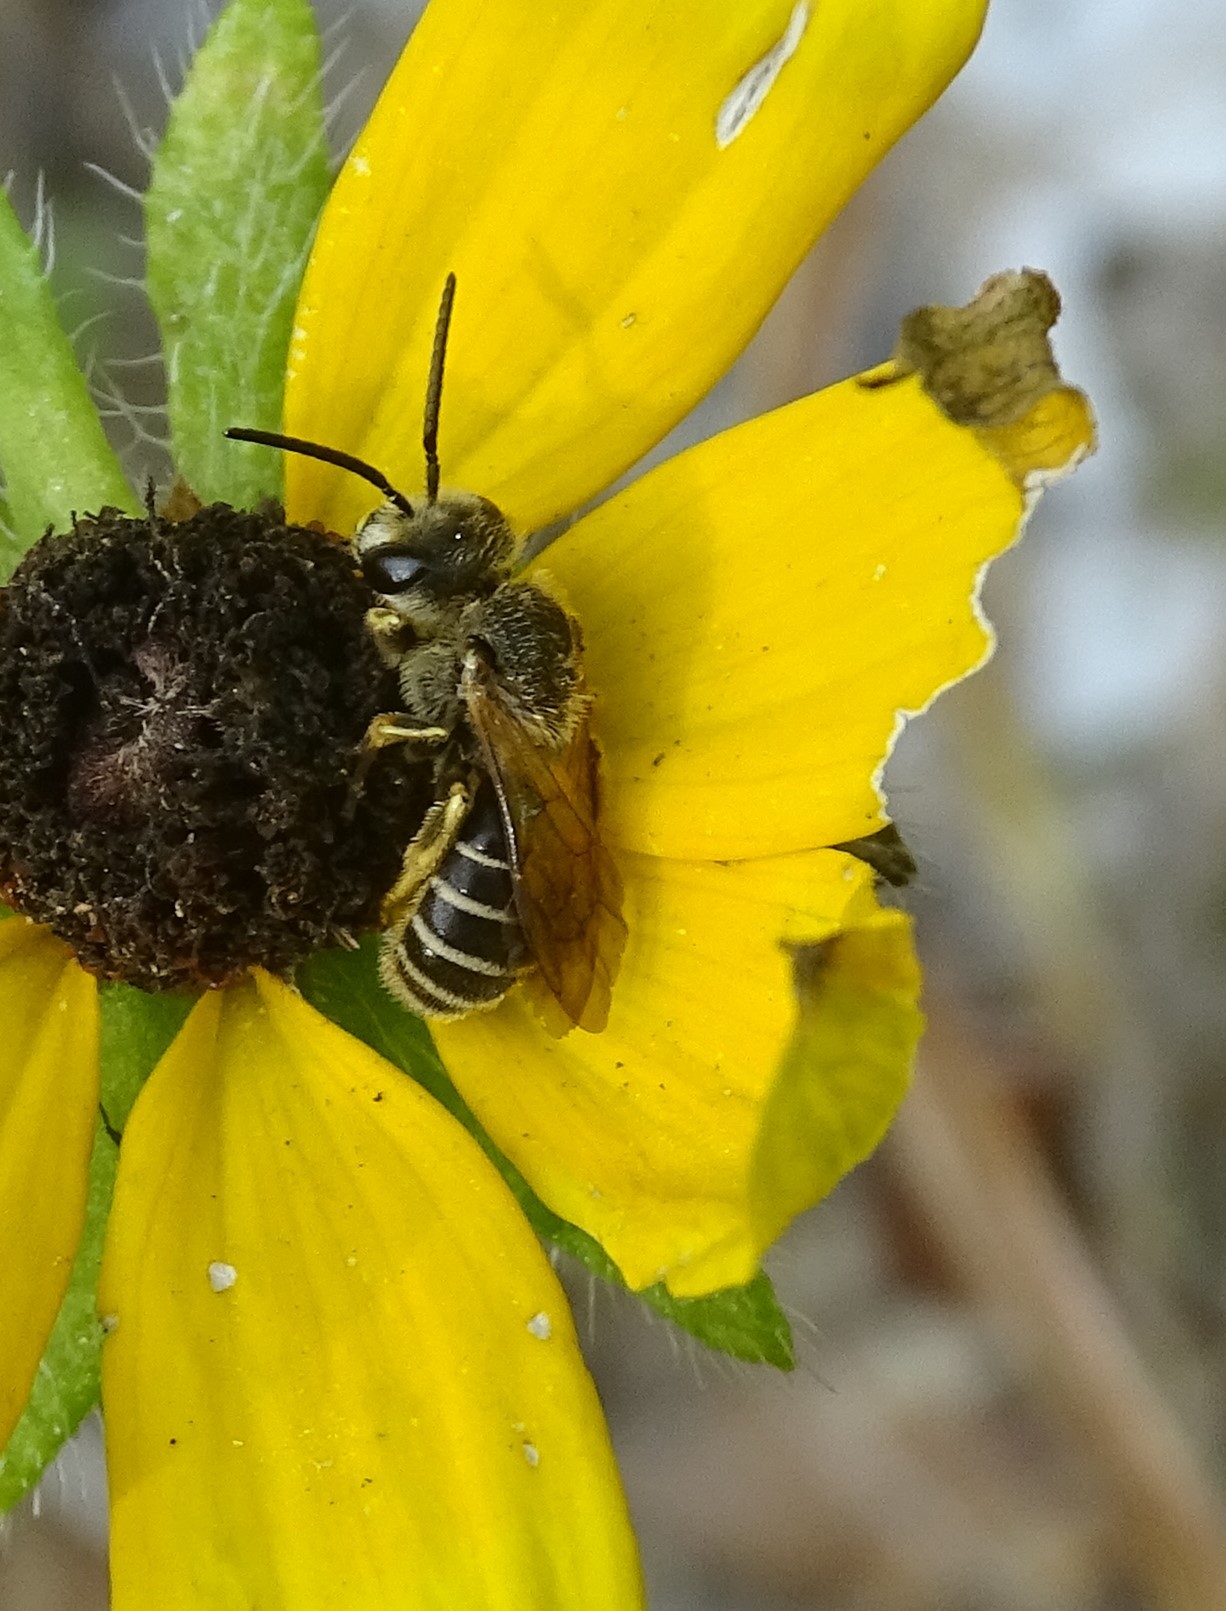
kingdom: Animalia
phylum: Arthropoda
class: Insecta
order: Hymenoptera
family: Halictidae
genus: Halictus
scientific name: Halictus poeyi
